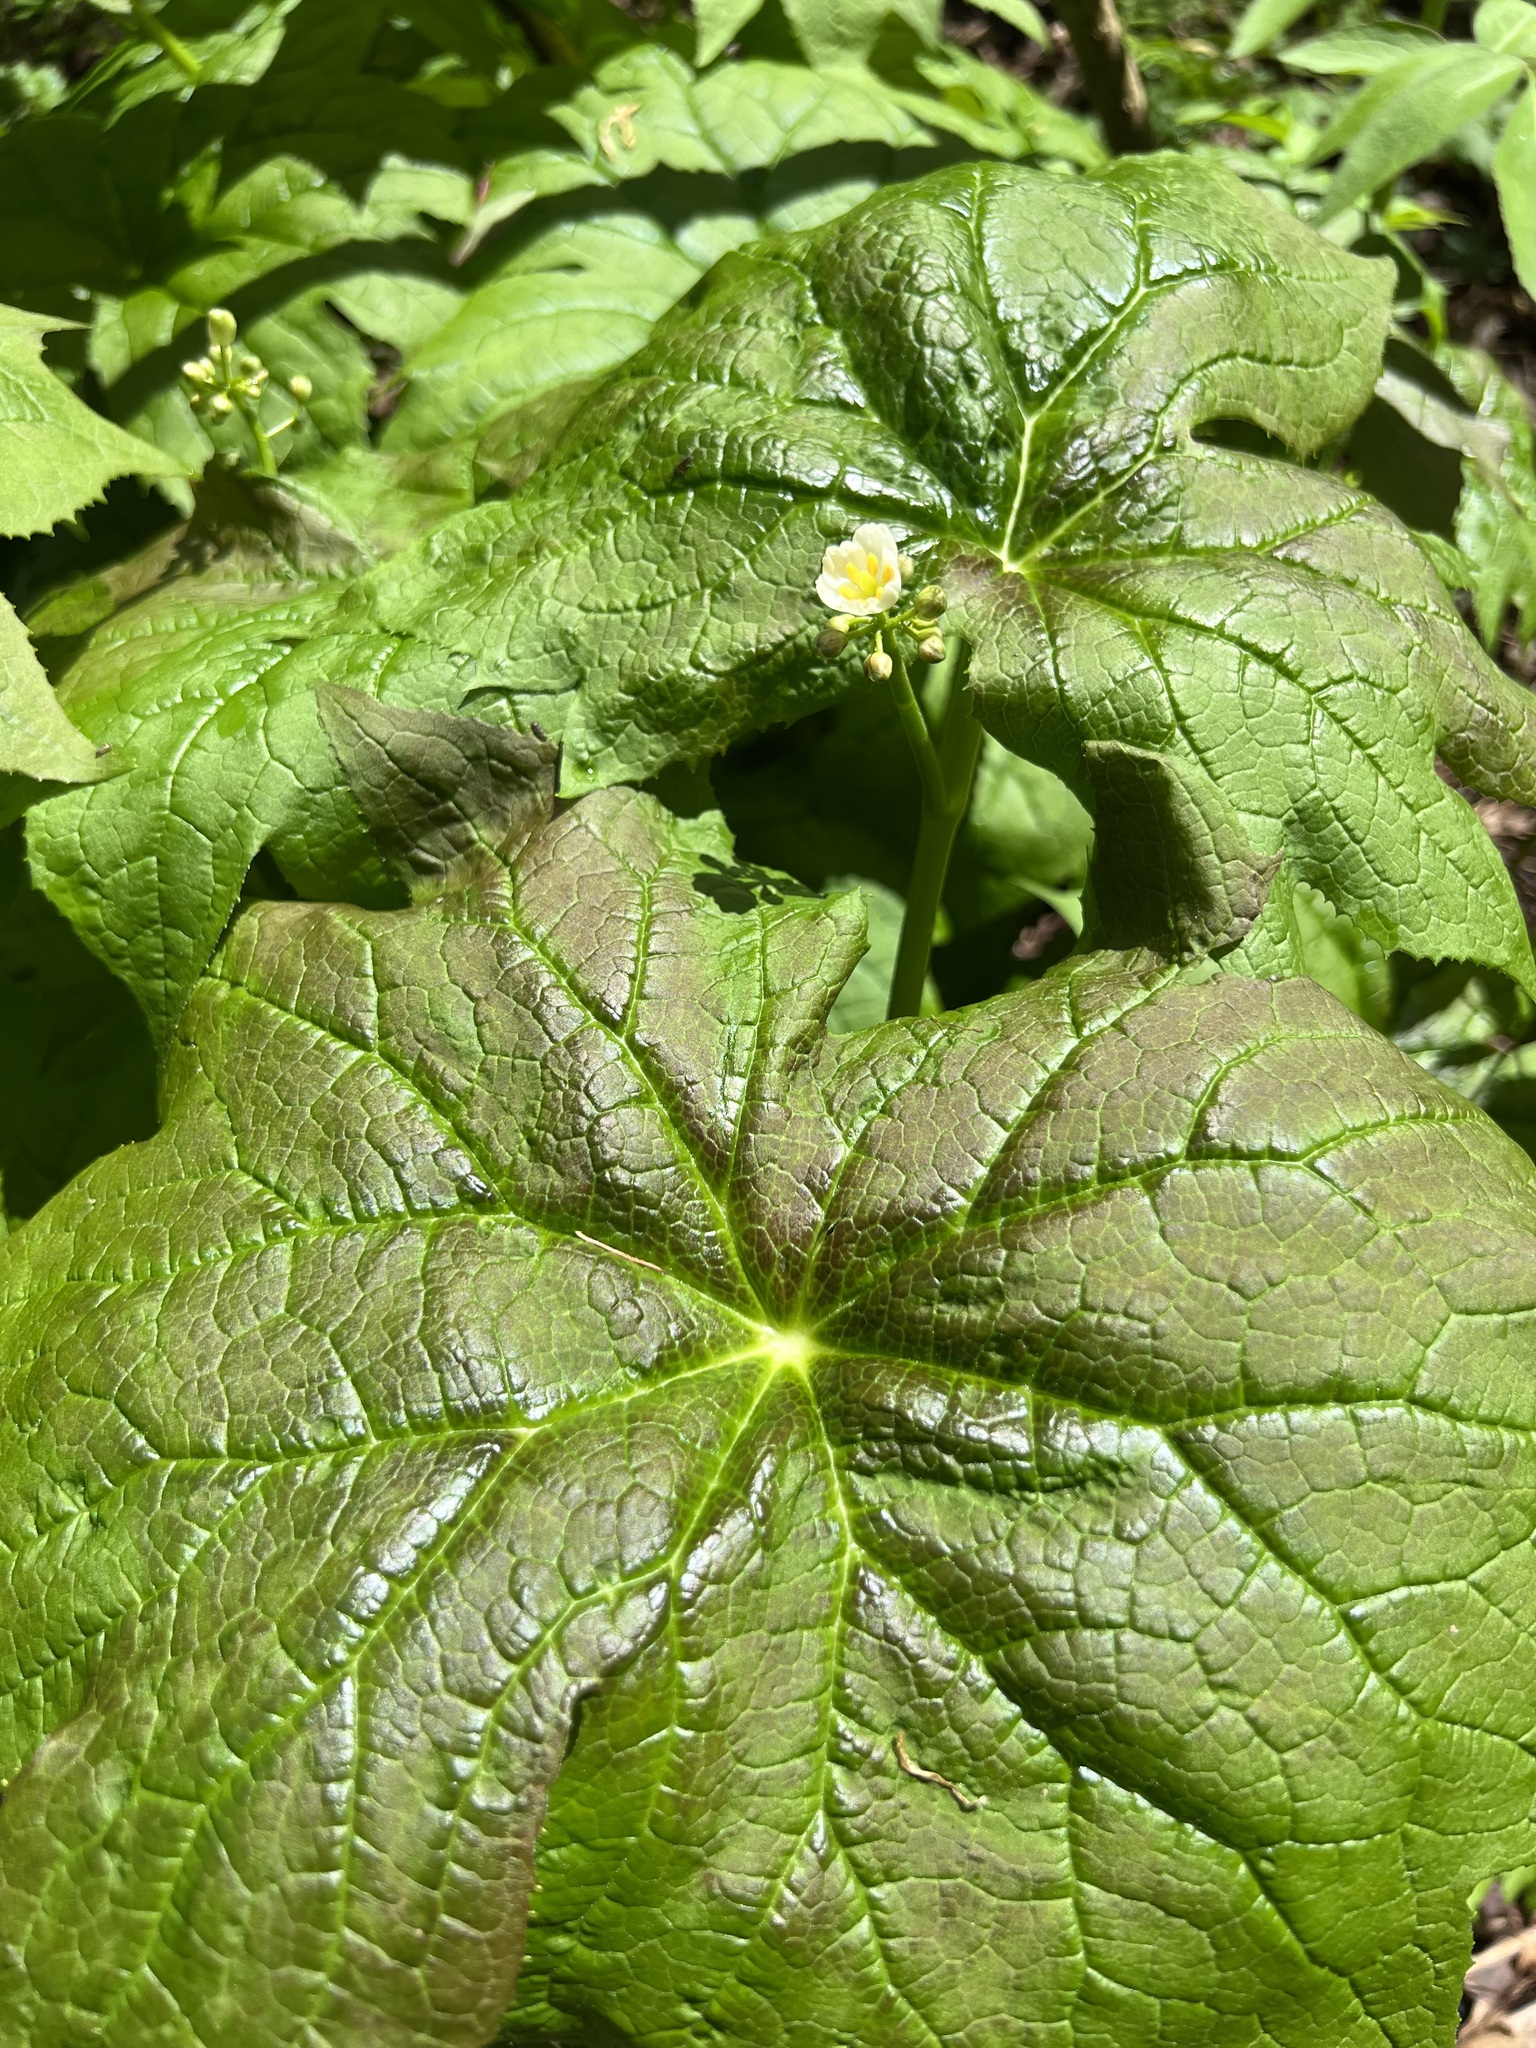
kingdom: Plantae
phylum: Tracheophyta
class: Magnoliopsida
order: Ranunculales
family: Berberidaceae
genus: Diphylleia
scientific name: Diphylleia cymosa
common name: Umbrella-leaf
